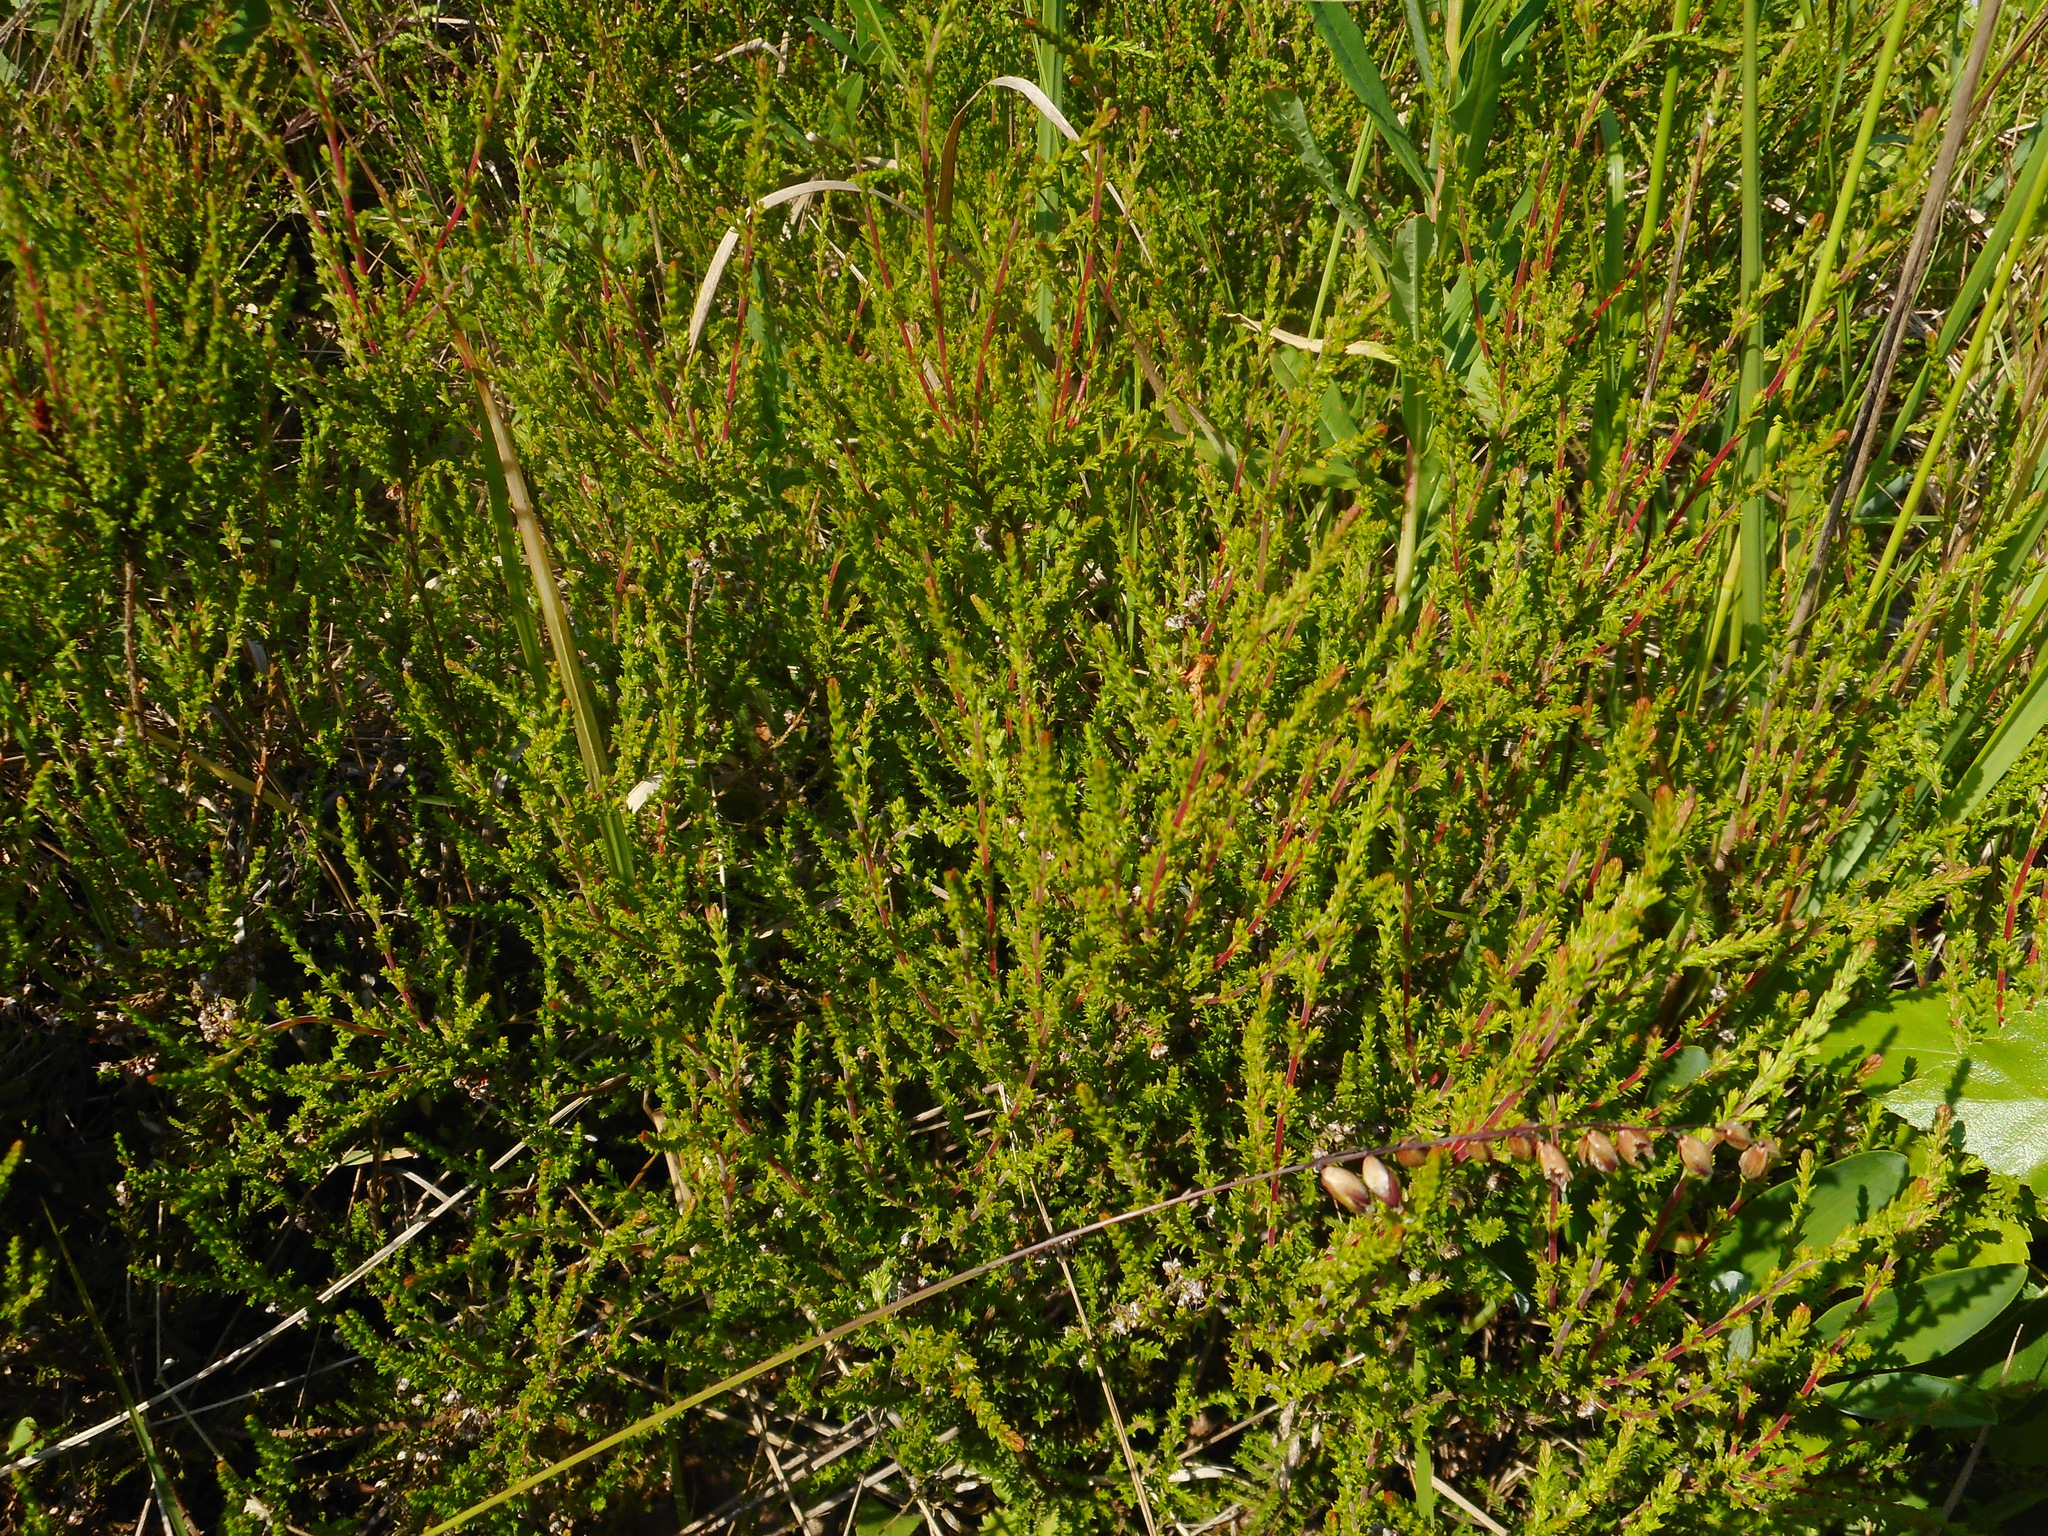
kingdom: Plantae
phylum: Tracheophyta
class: Magnoliopsida
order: Ericales
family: Ericaceae
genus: Calluna
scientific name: Calluna vulgaris
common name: Heather
